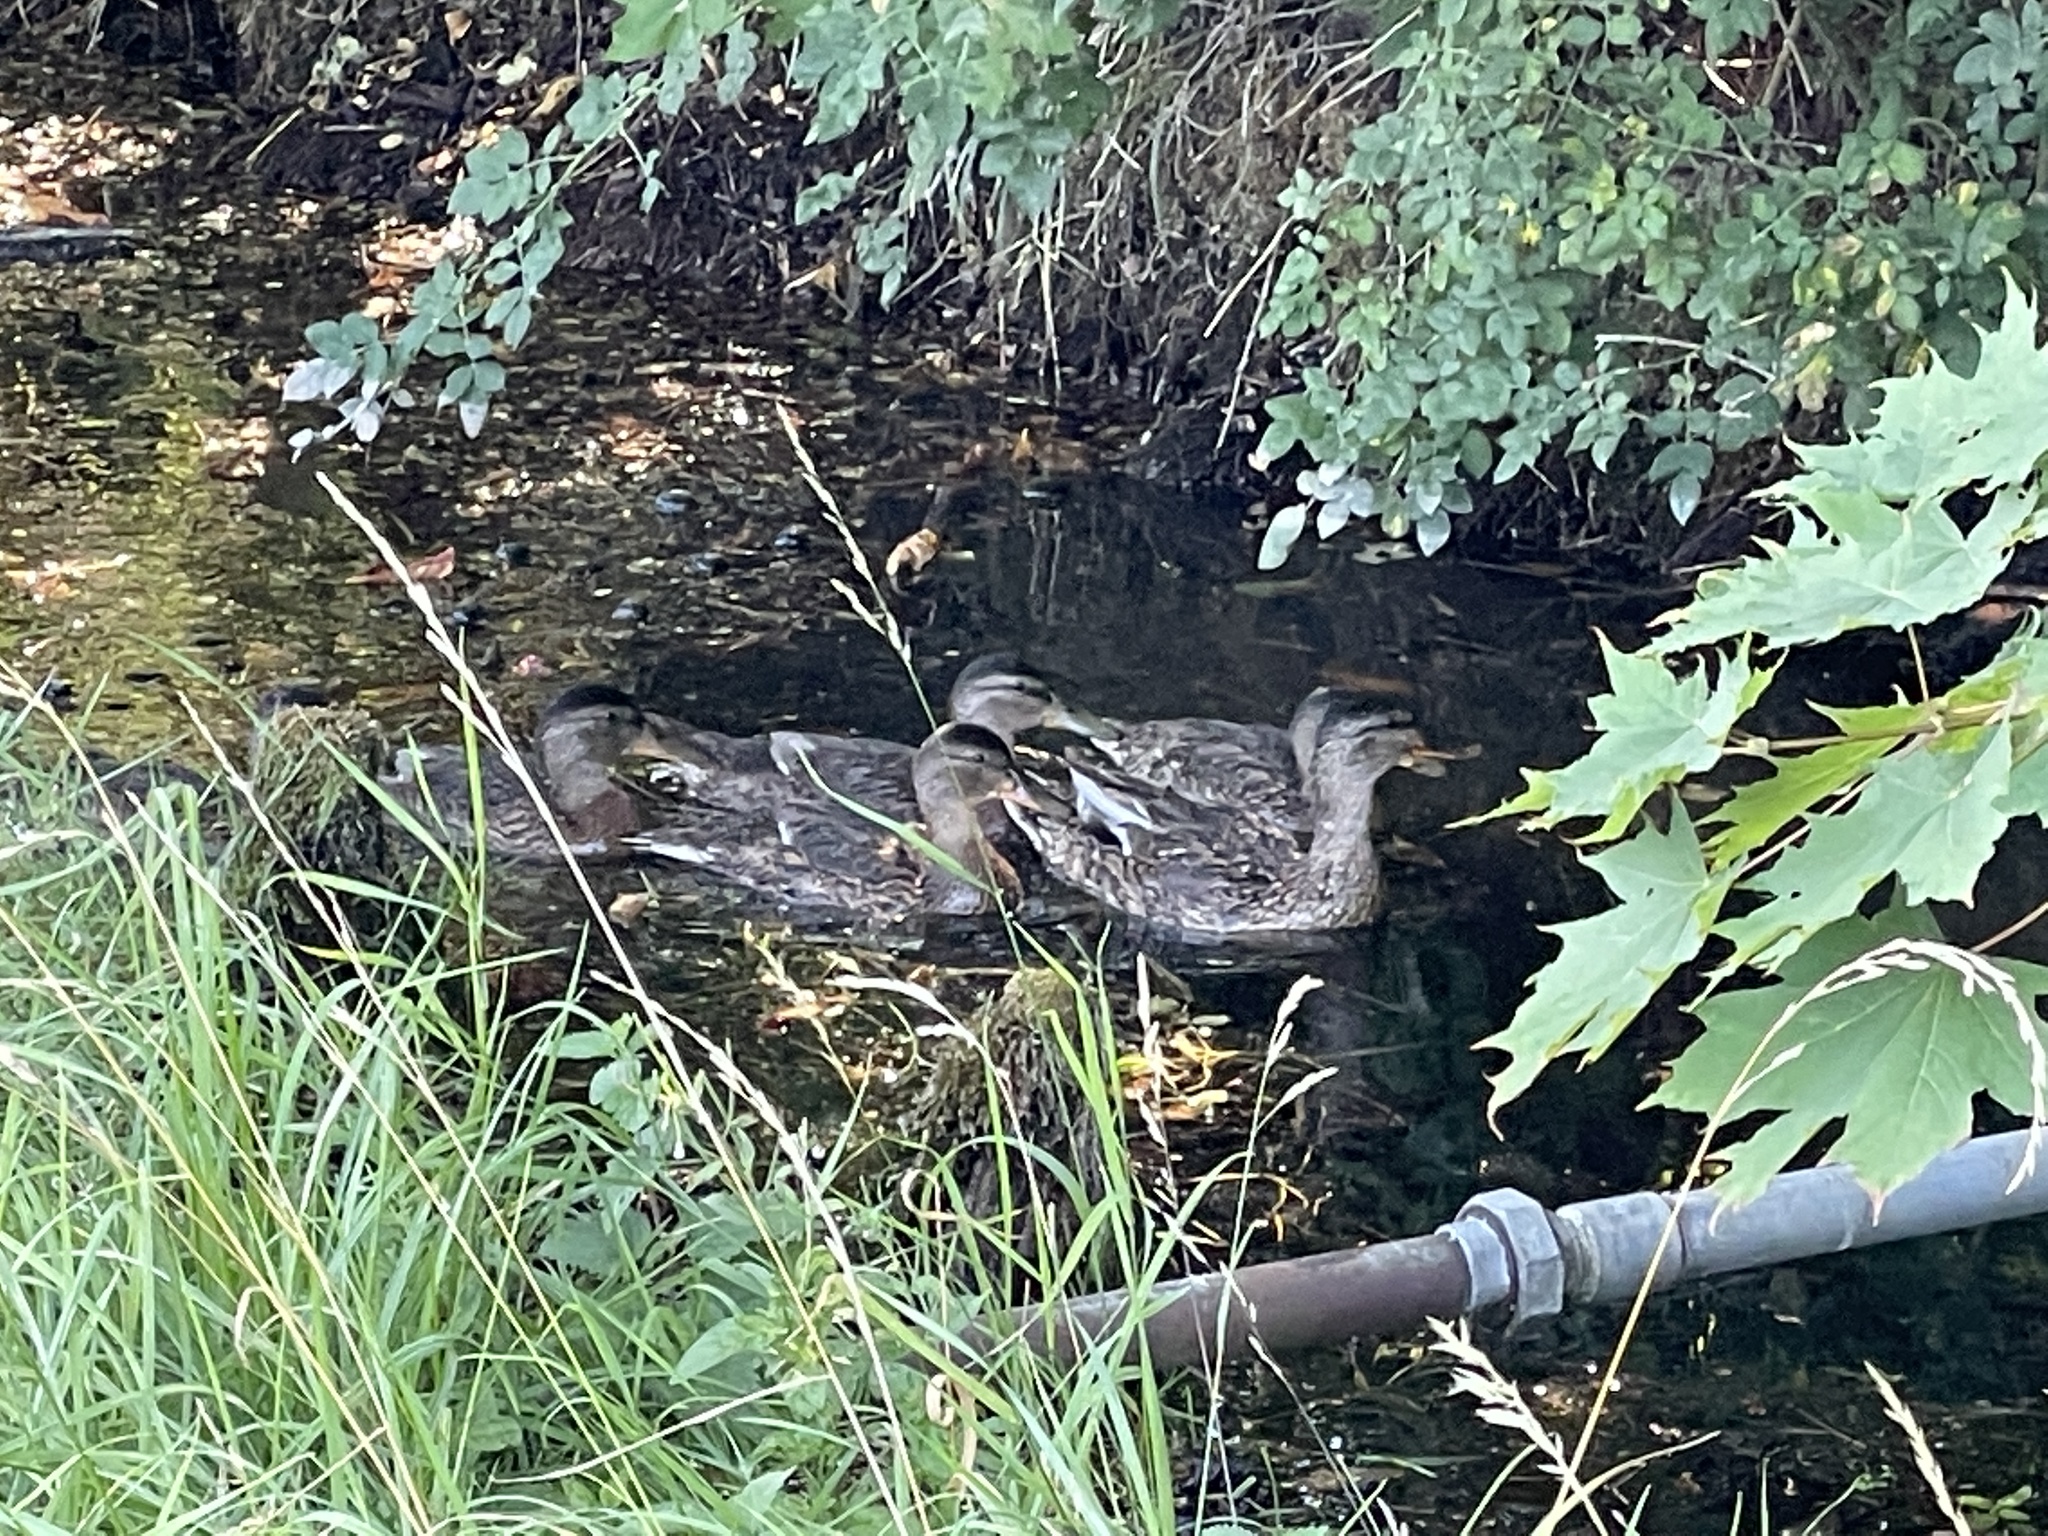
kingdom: Animalia
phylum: Chordata
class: Aves
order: Anseriformes
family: Anatidae
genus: Anas
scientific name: Anas platyrhynchos
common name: Mallard
